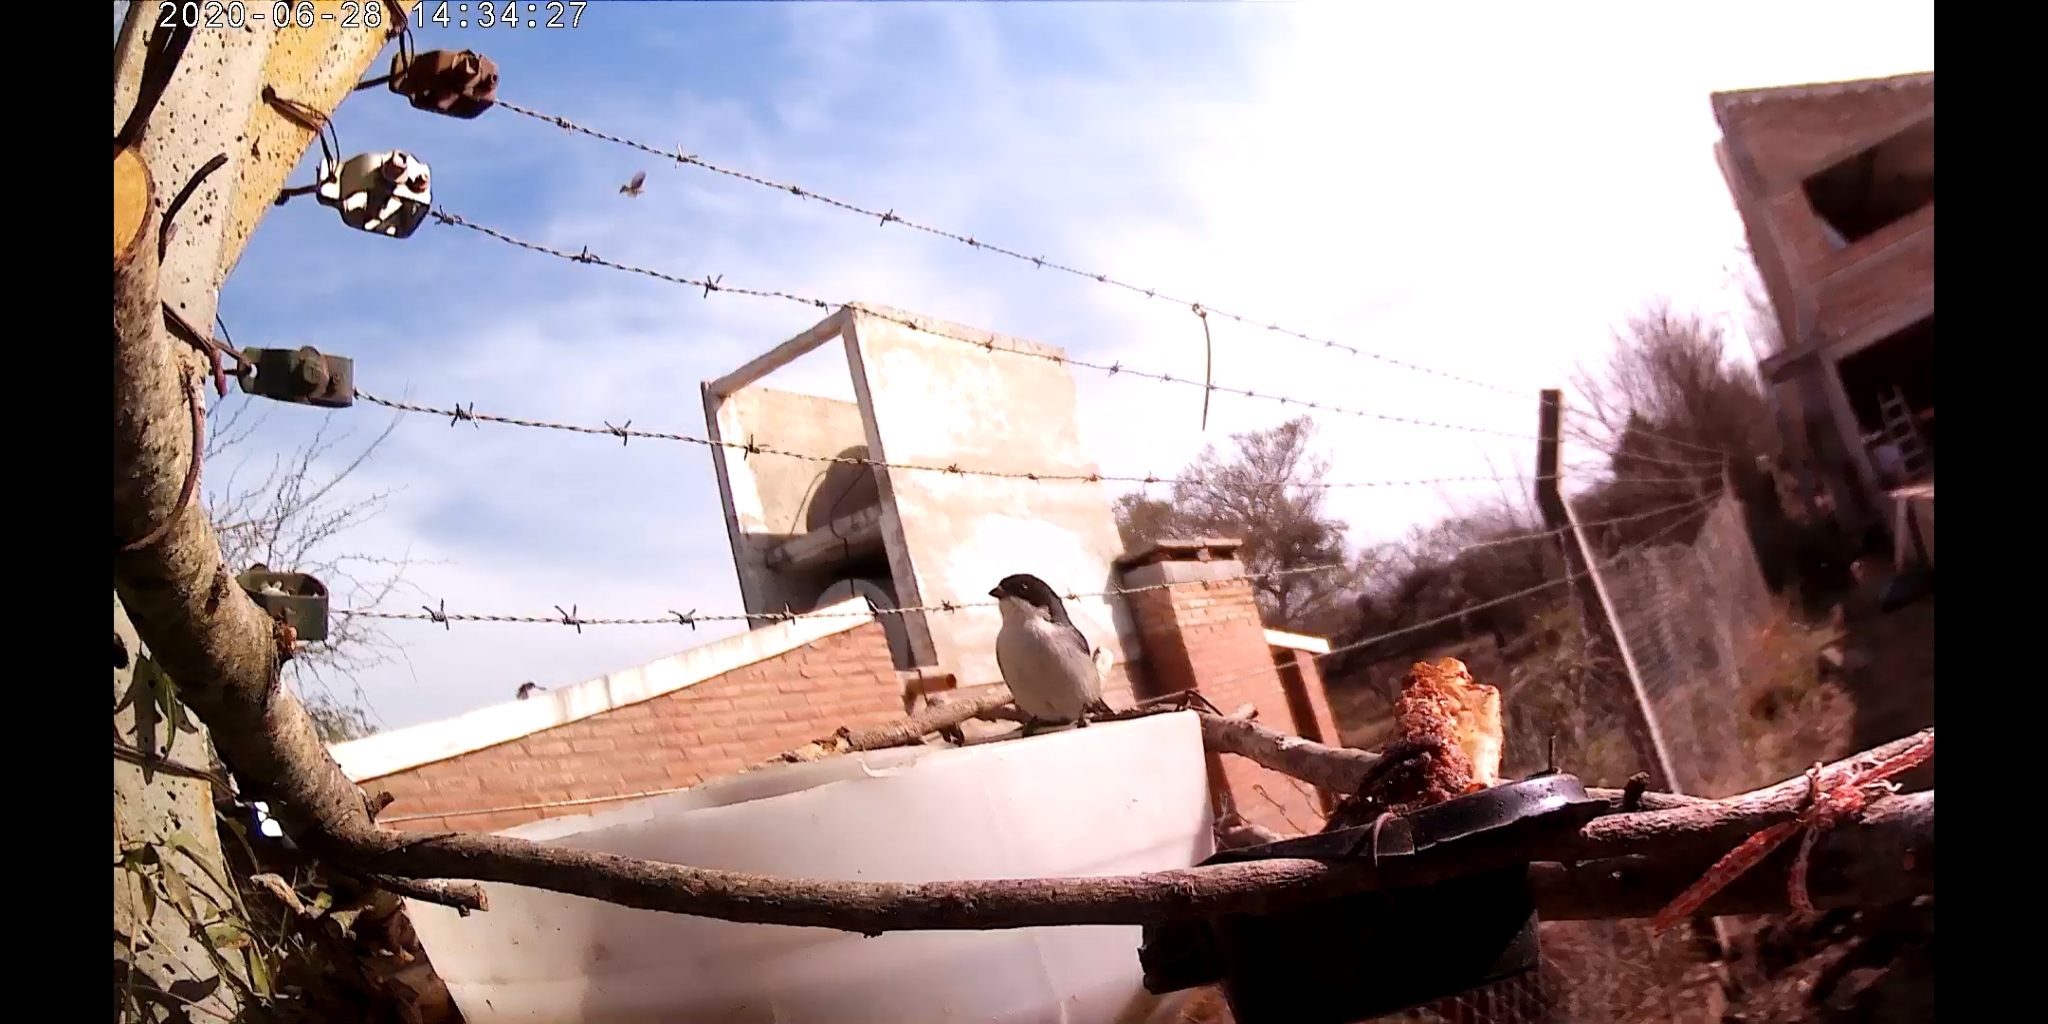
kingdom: Animalia
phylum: Chordata
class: Aves
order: Passeriformes
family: Thraupidae
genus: Microspingus
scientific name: Microspingus melanoleucus
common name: Black-capped warbling-finch
